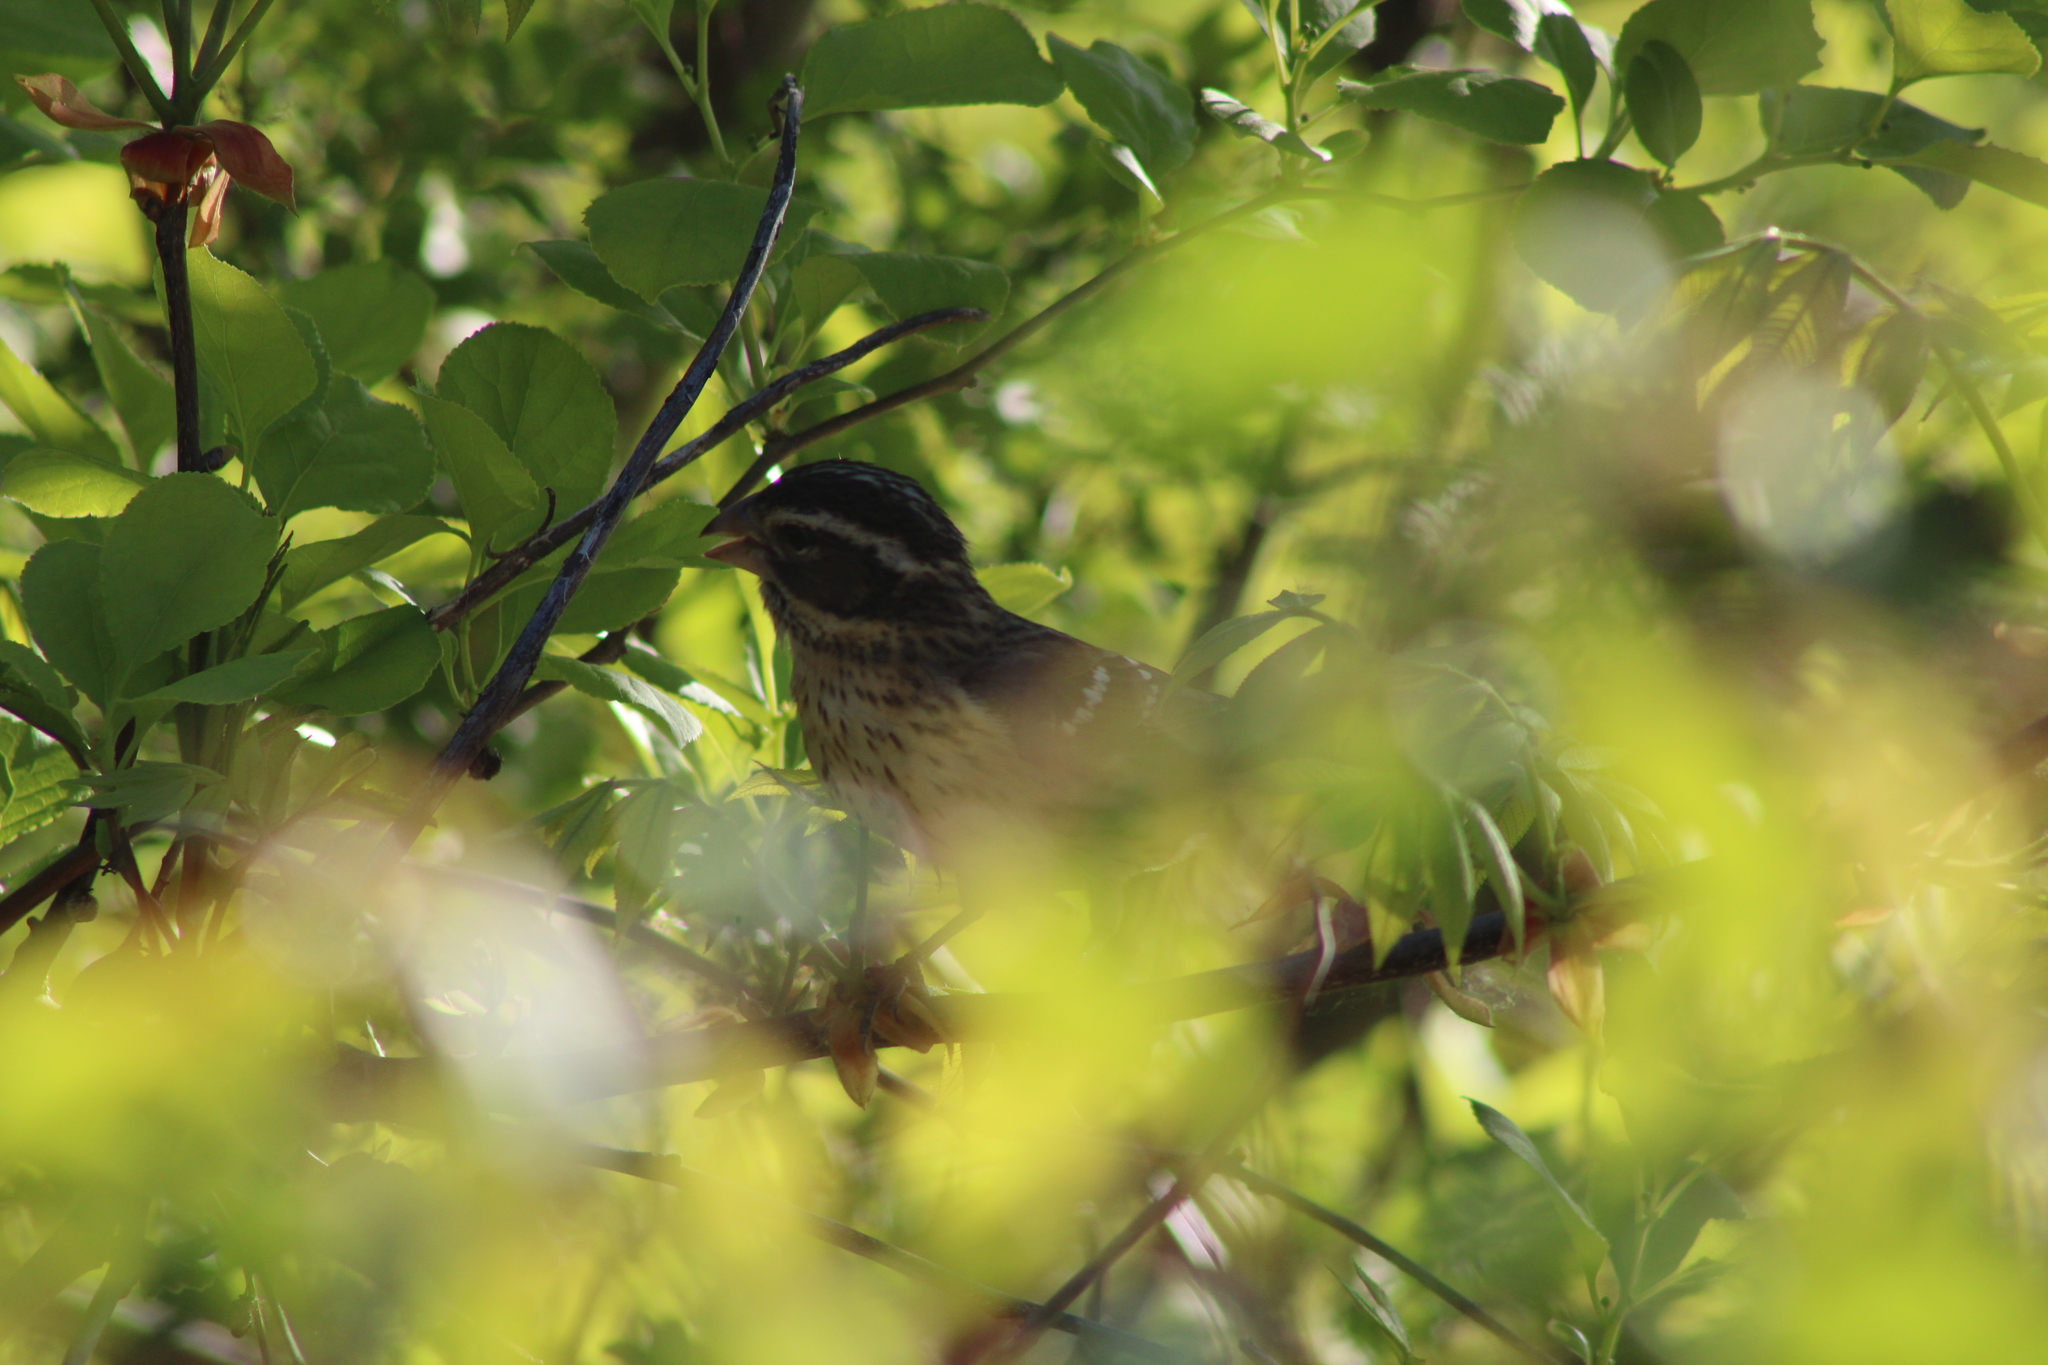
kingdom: Animalia
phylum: Chordata
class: Aves
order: Passeriformes
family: Cardinalidae
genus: Pheucticus
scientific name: Pheucticus ludovicianus
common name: Rose-breasted grosbeak
